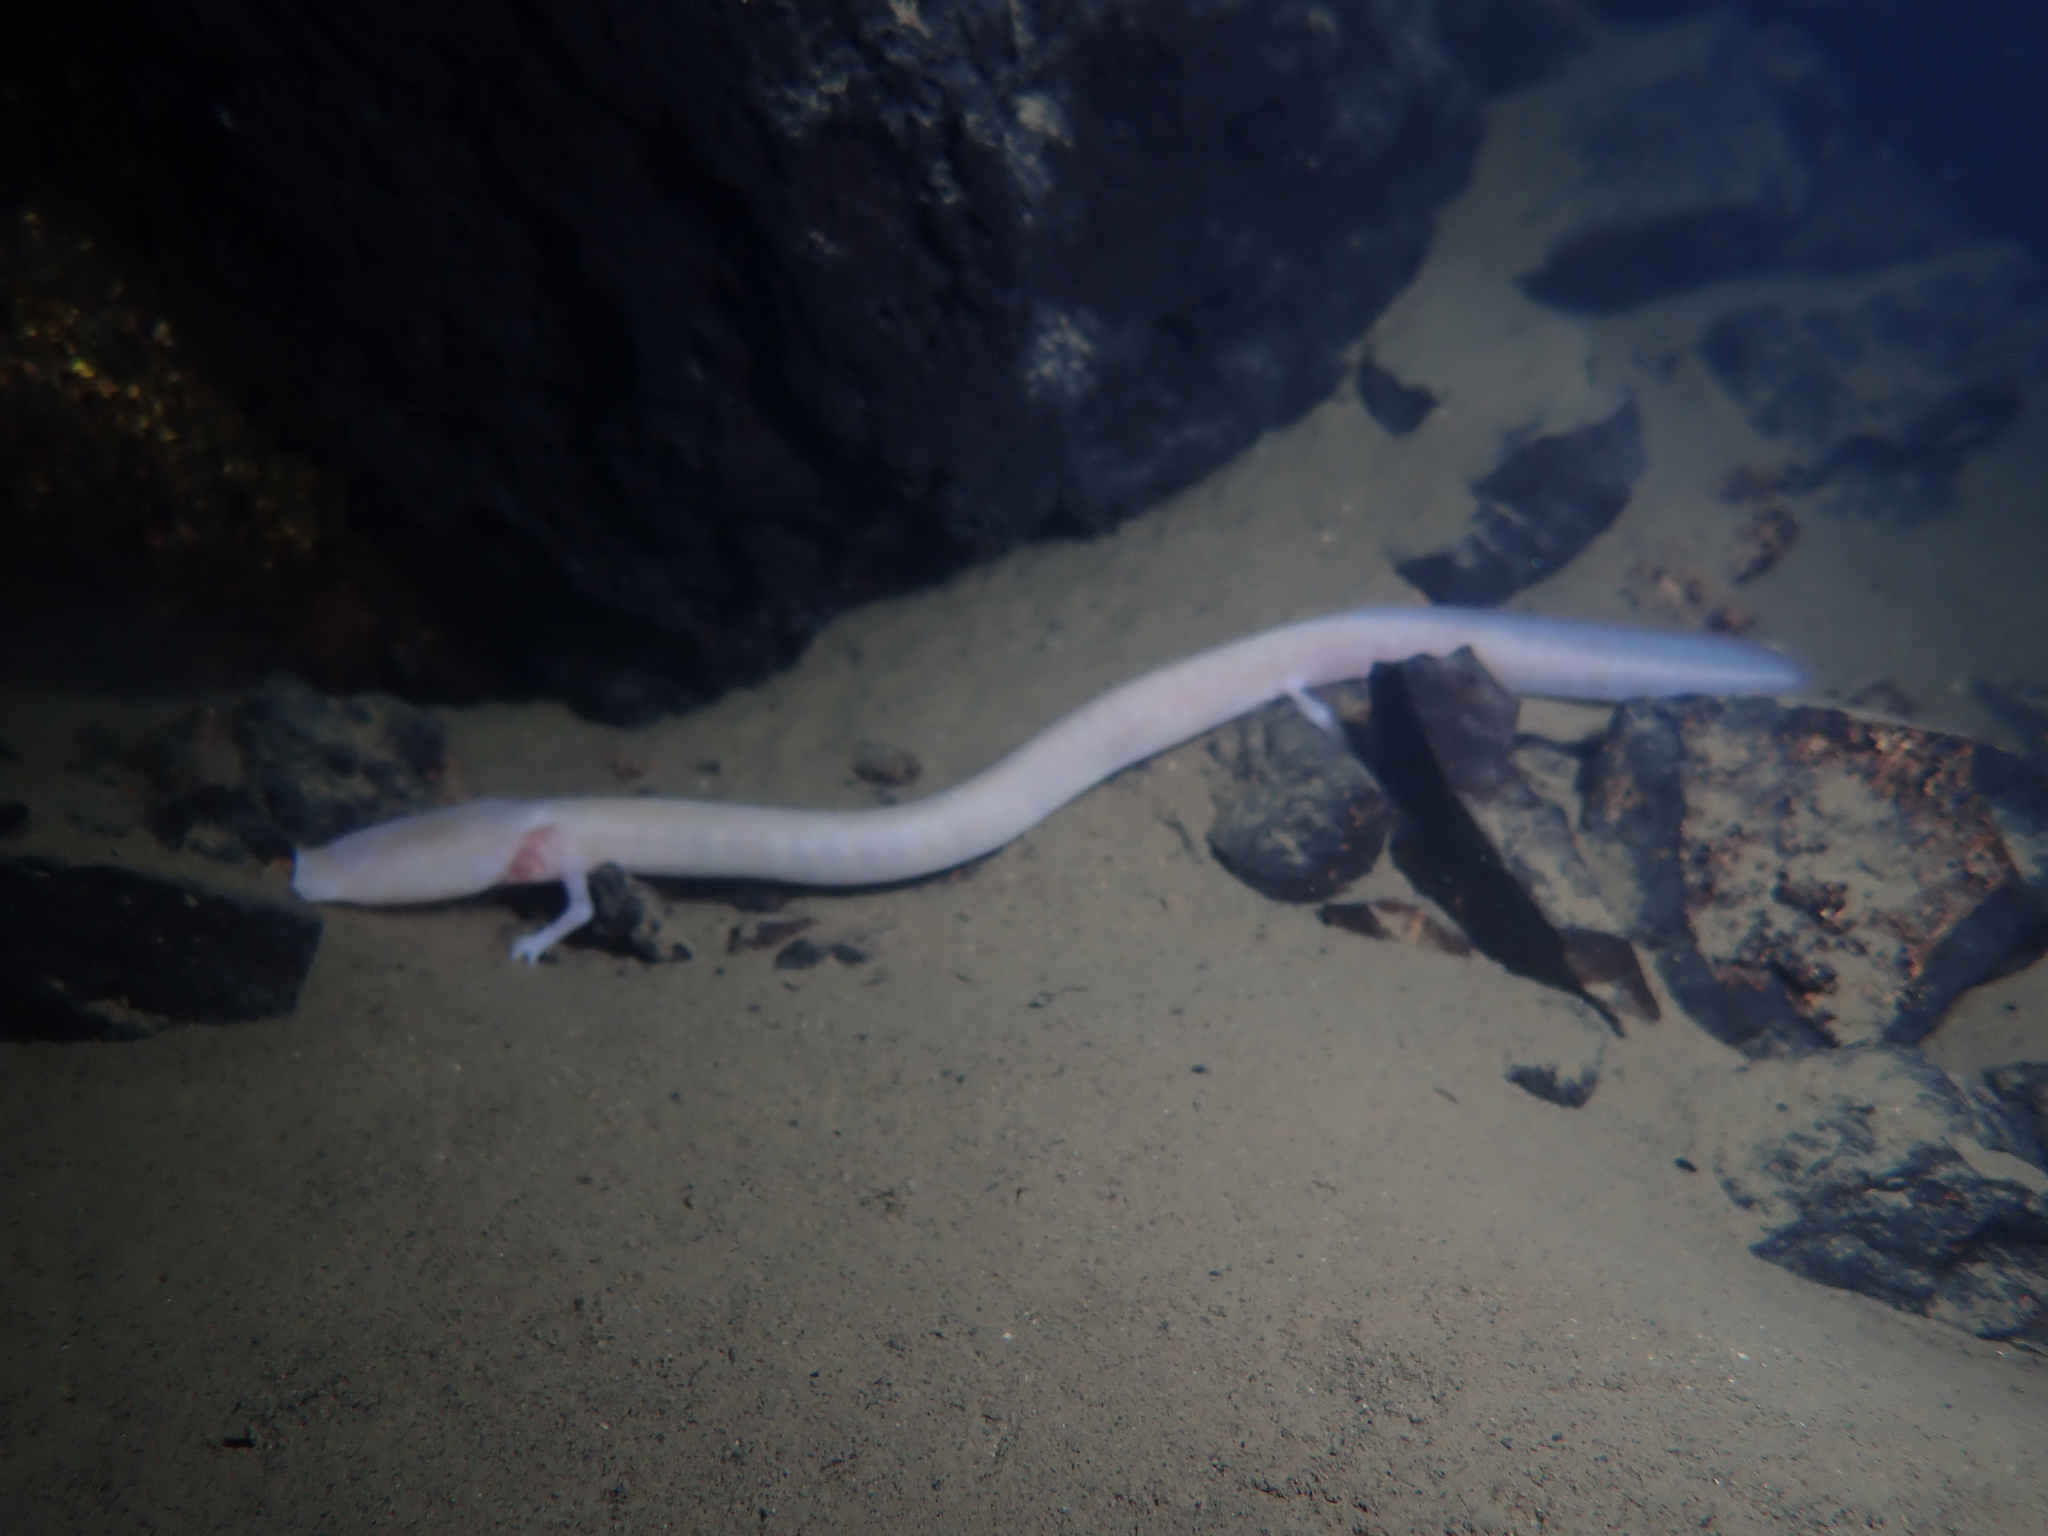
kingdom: Animalia
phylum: Chordata
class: Amphibia
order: Caudata
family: Proteidae
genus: Proteus
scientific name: Proteus anguinus
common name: Olm
